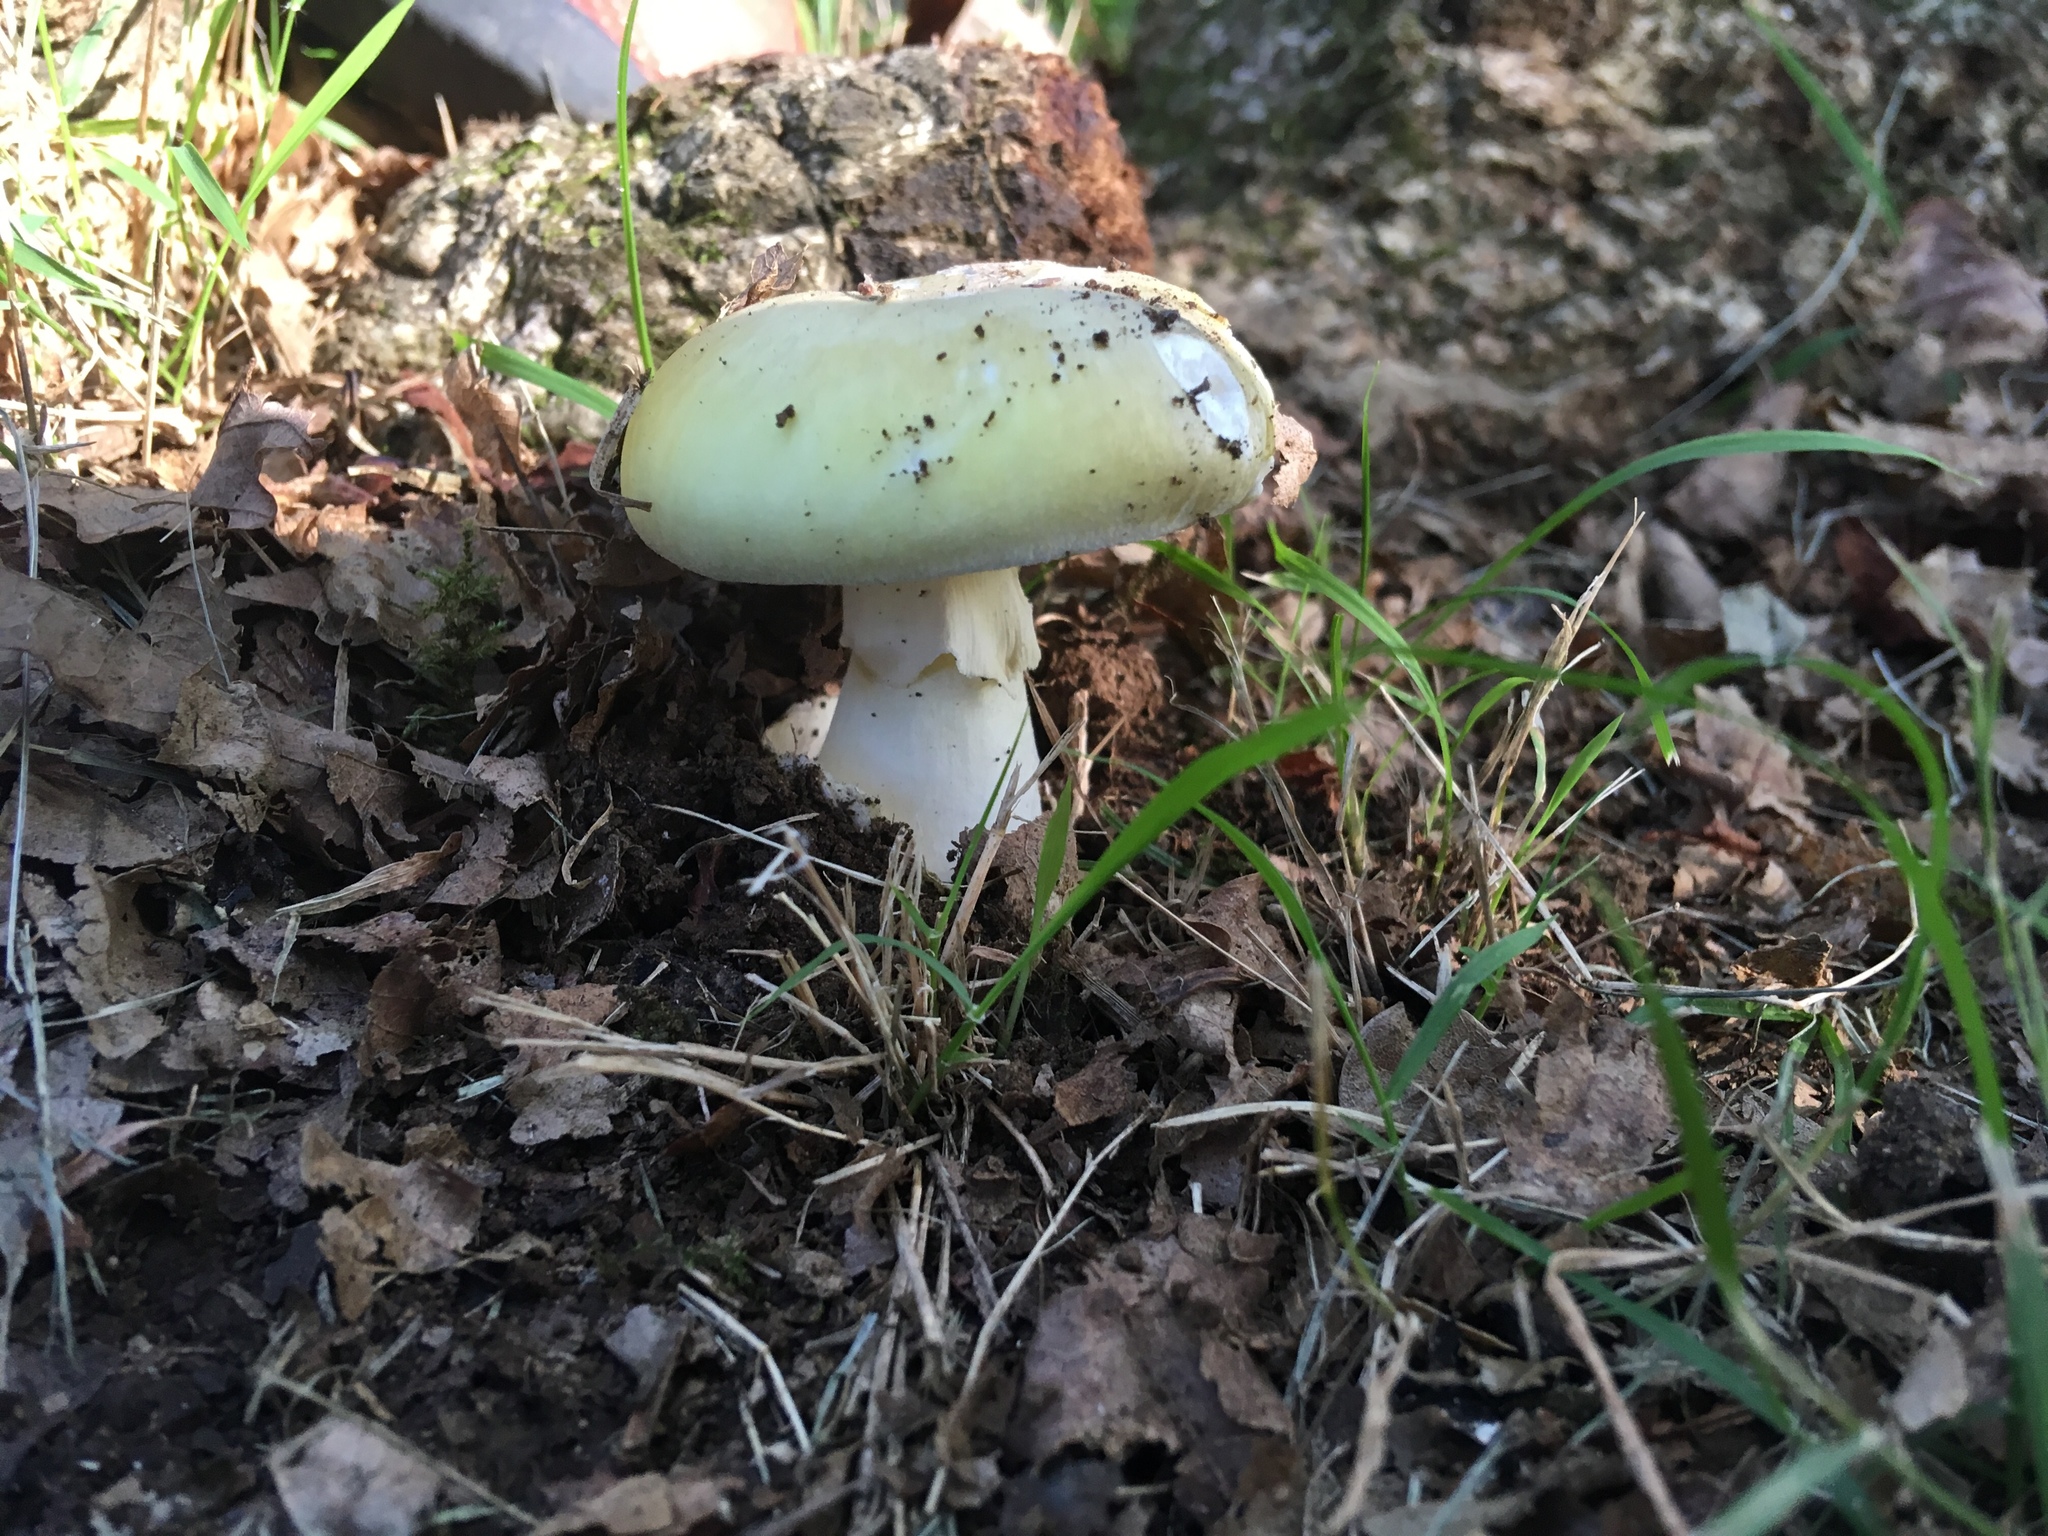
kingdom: Fungi
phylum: Basidiomycota
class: Agaricomycetes
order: Agaricales
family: Amanitaceae
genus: Amanita
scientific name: Amanita phalloides
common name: Death cap
